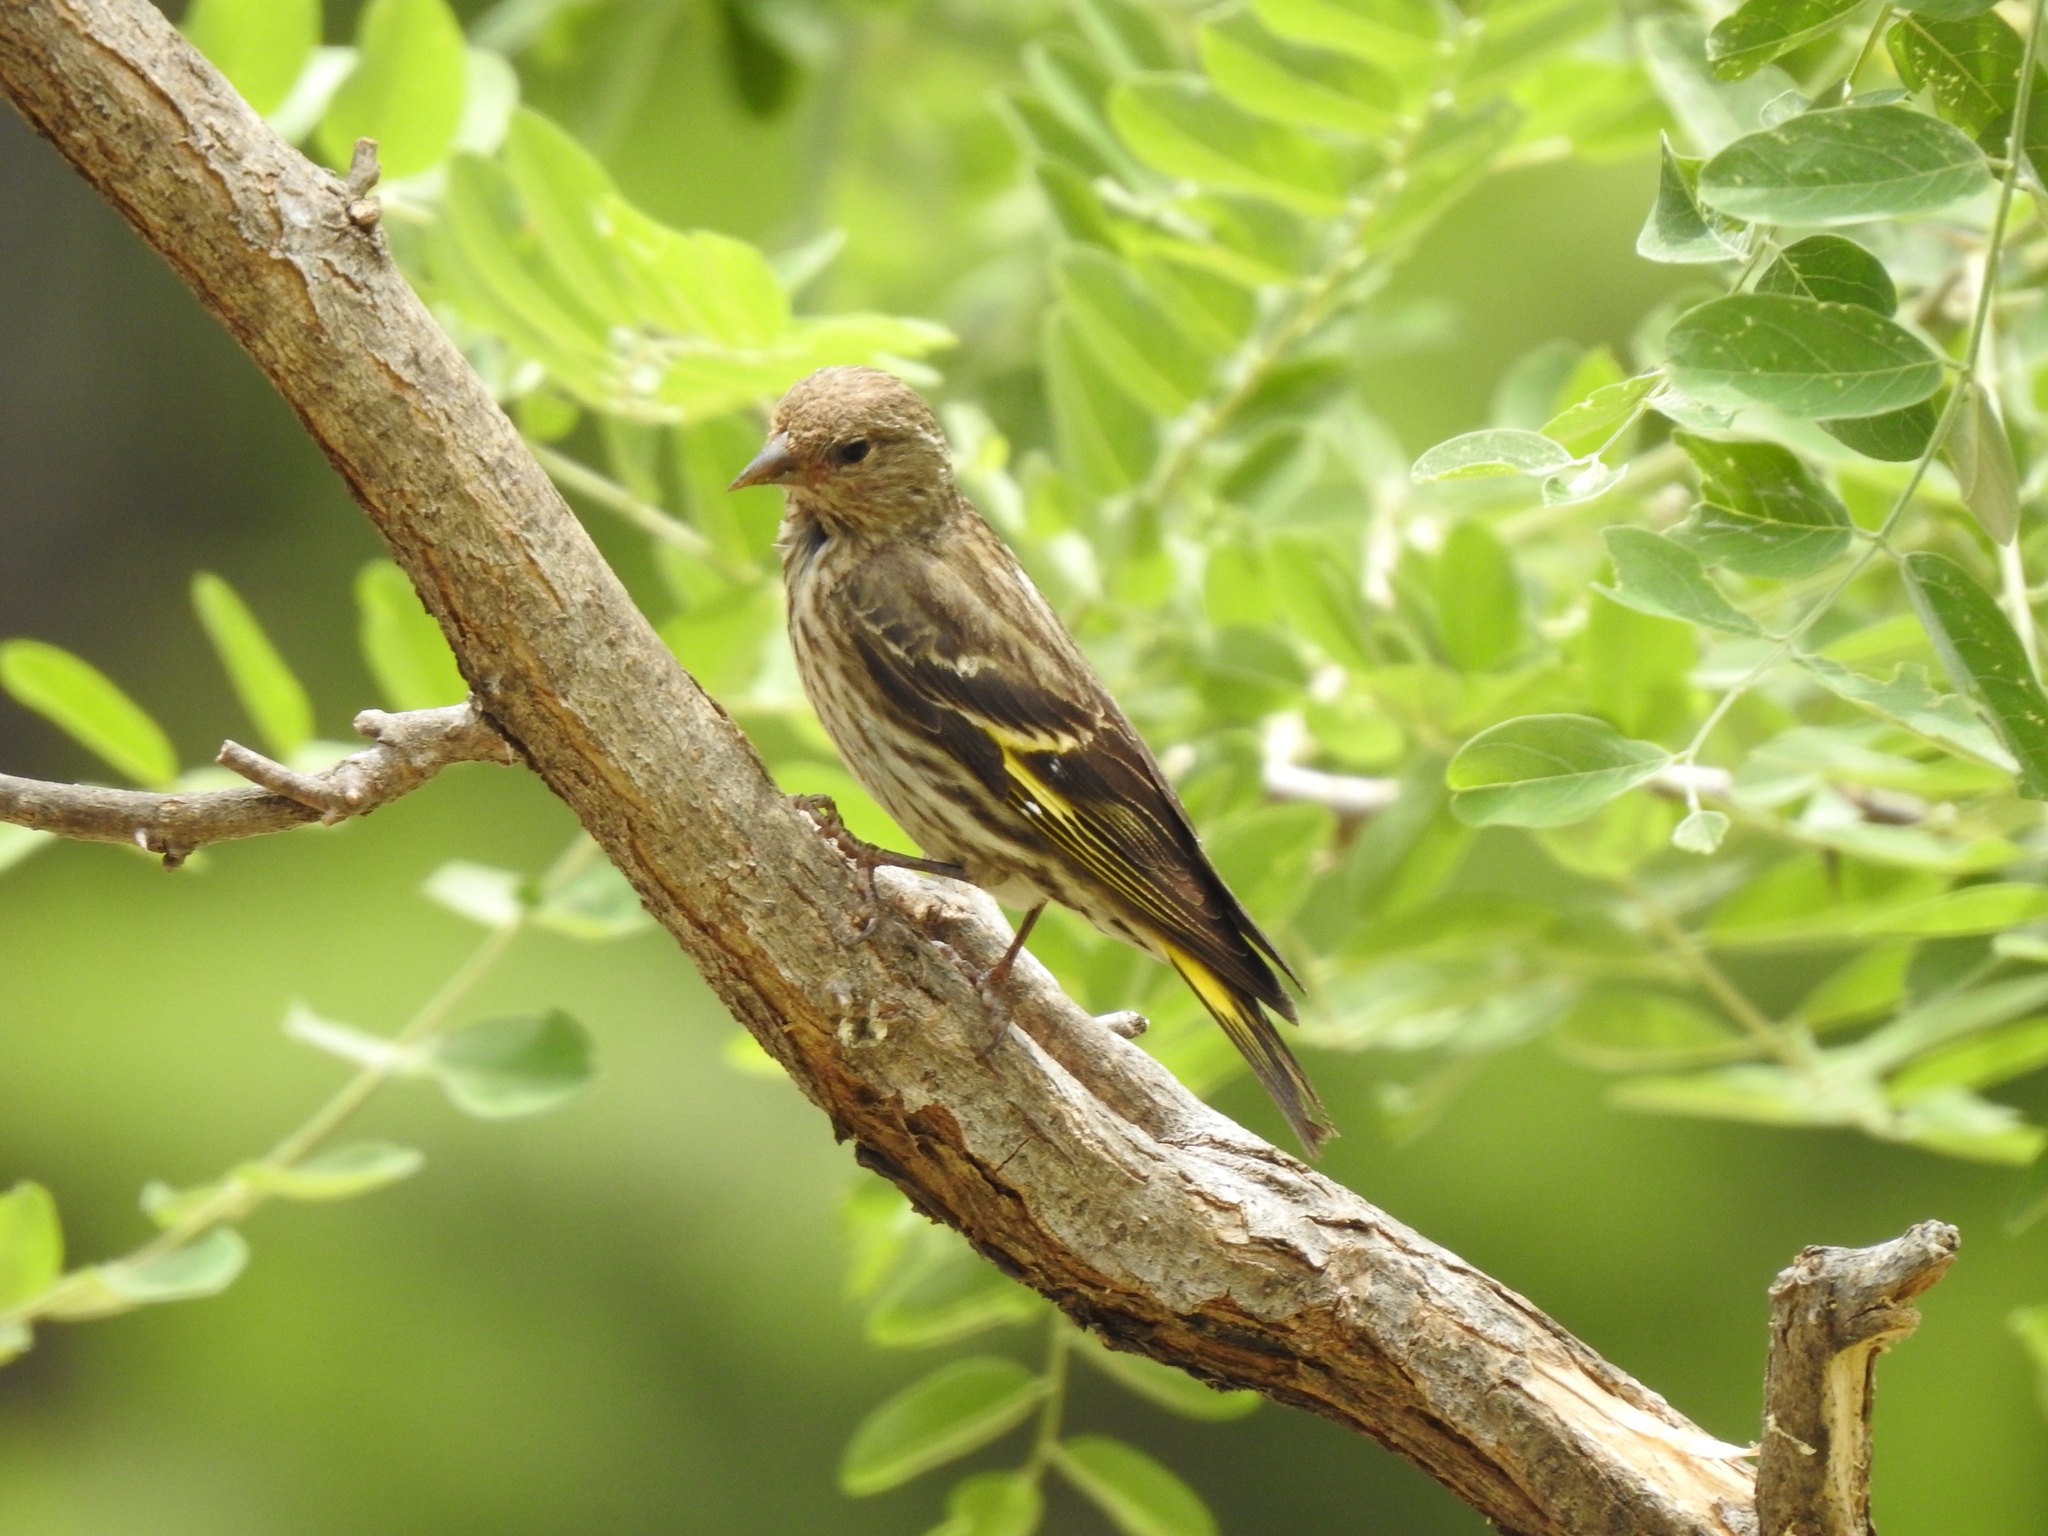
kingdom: Animalia
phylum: Chordata
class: Aves
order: Passeriformes
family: Fringillidae
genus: Spinus
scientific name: Spinus pinus
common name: Pine siskin
